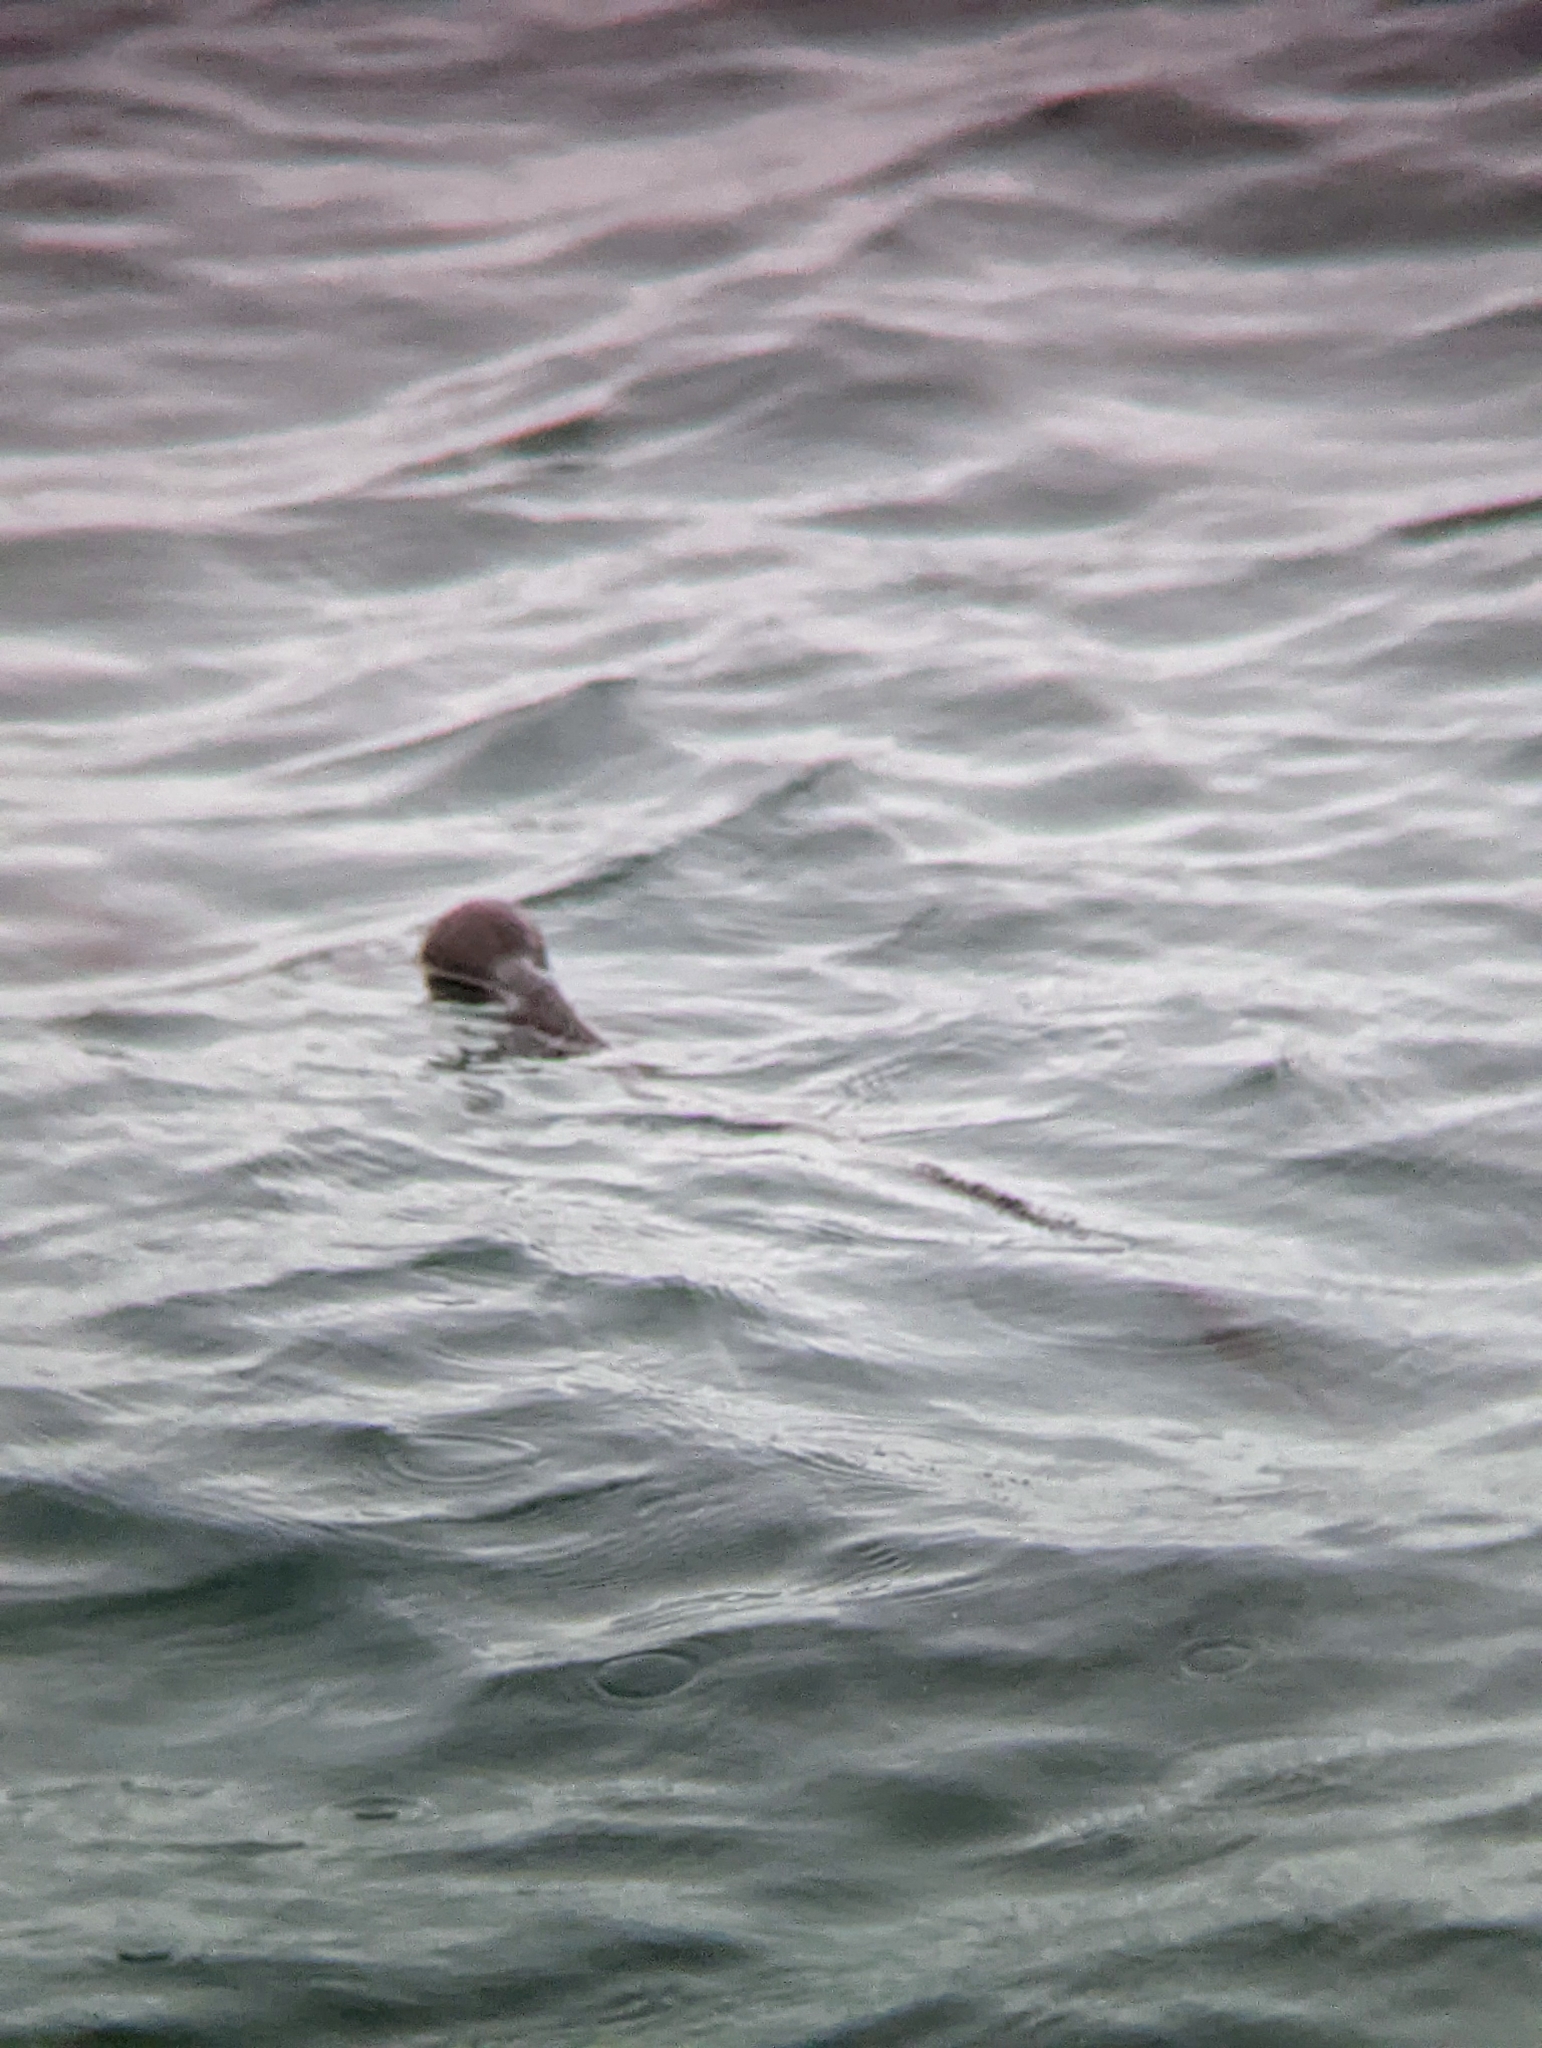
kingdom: Chromista
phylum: Ochrophyta
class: Phaeophyceae
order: Laminariales
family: Laminariaceae
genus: Nereocystis
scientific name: Nereocystis luetkeana
